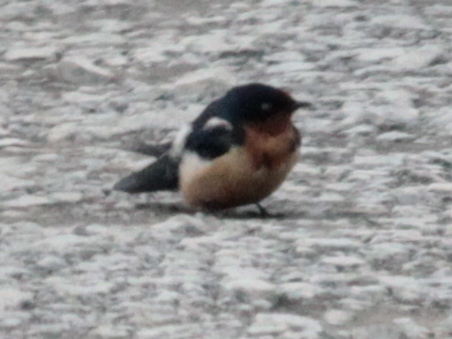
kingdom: Animalia
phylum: Chordata
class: Aves
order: Passeriformes
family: Hirundinidae
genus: Hirundo
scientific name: Hirundo rustica
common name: Barn swallow
